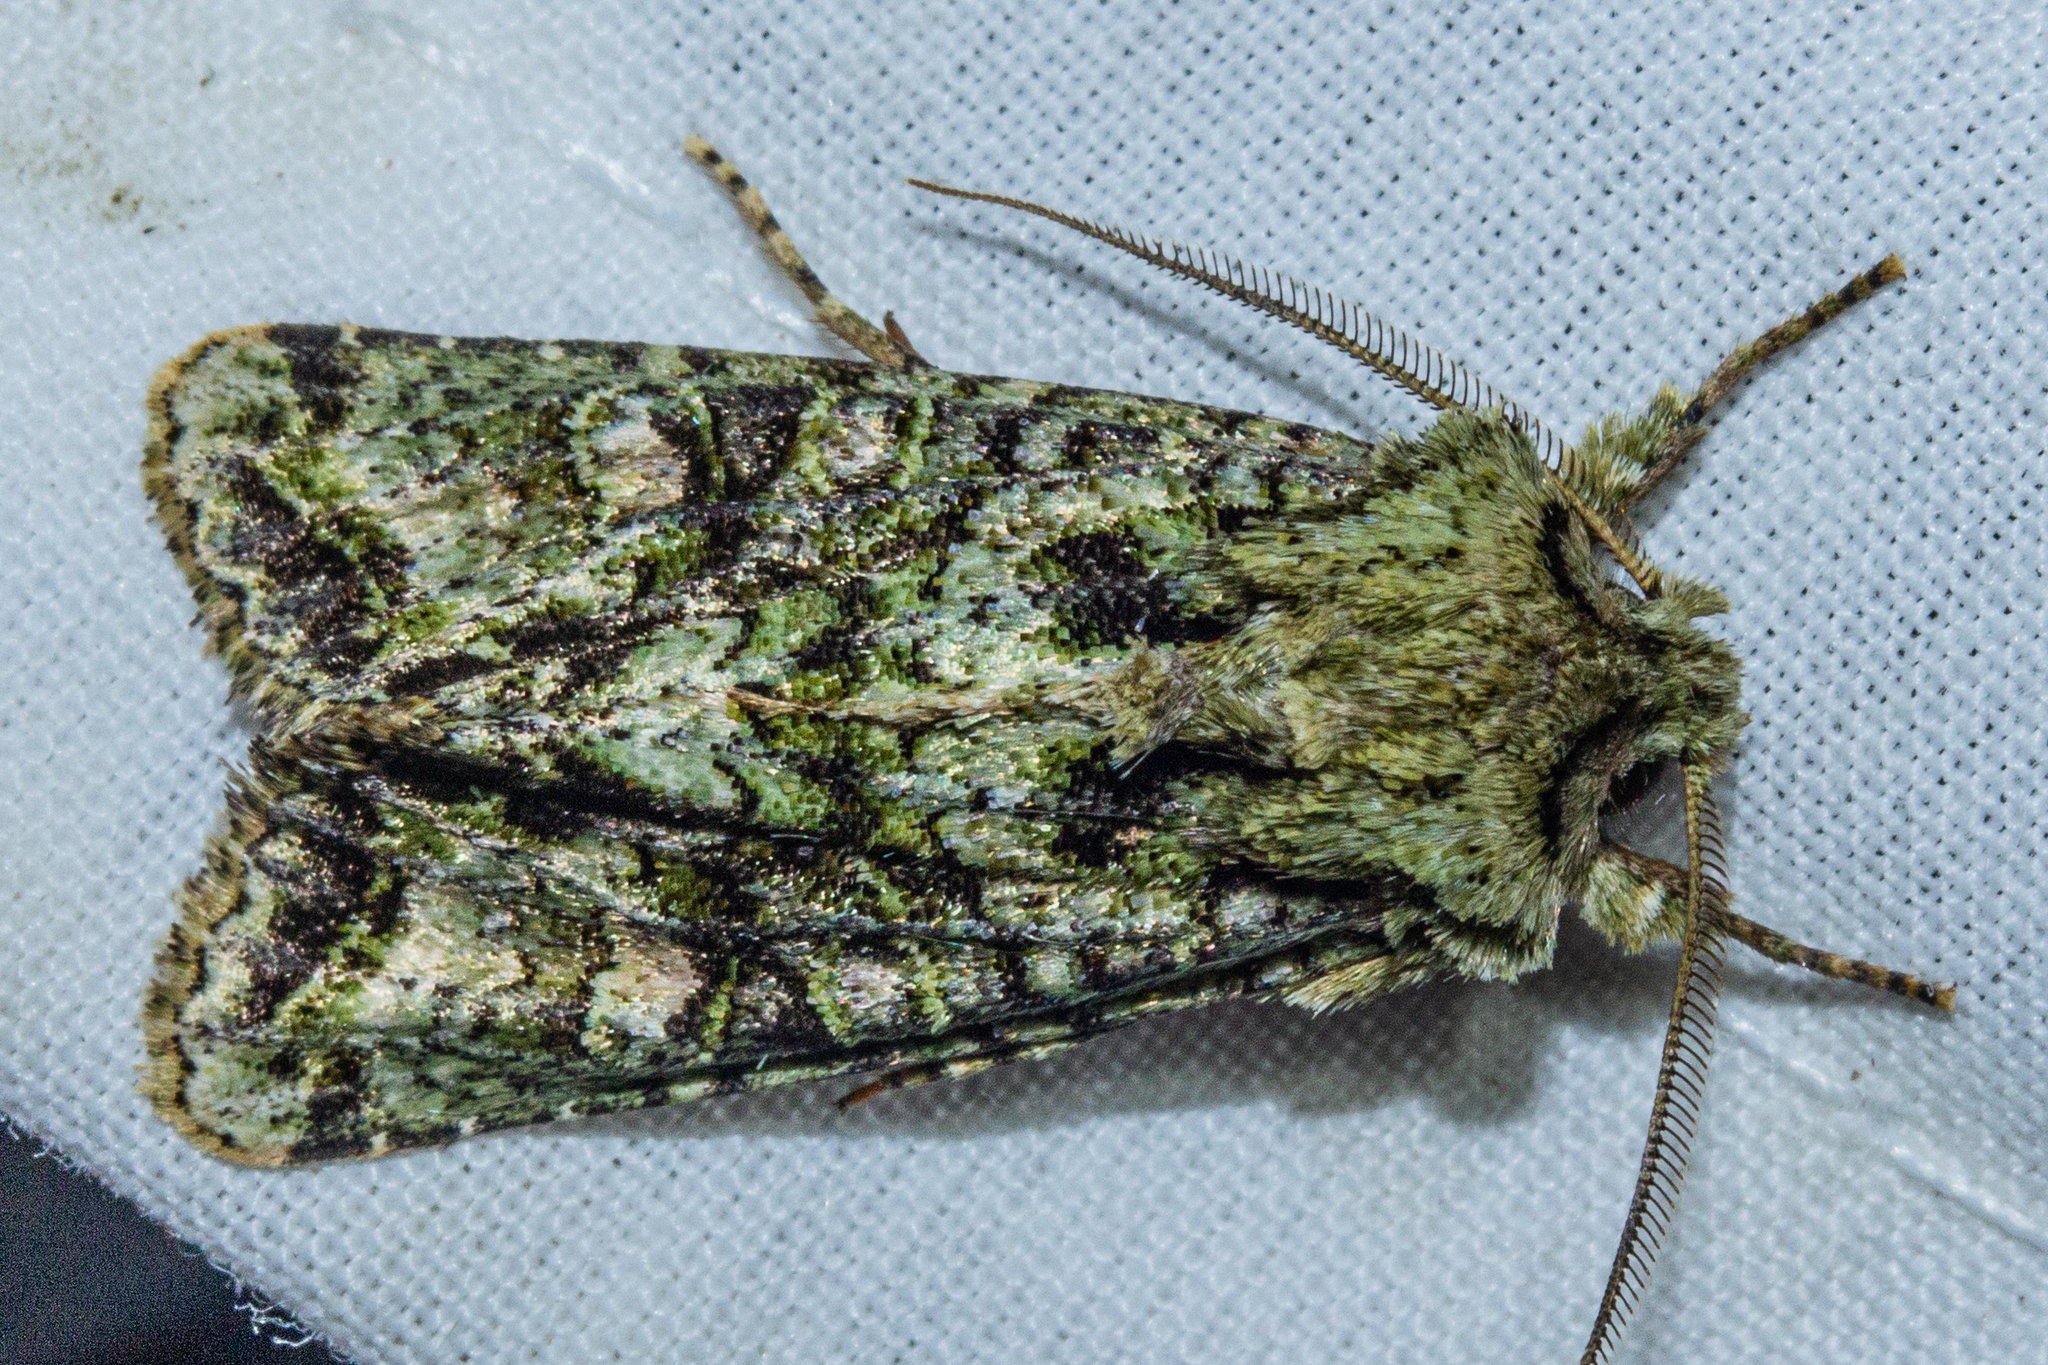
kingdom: Animalia
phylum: Arthropoda
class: Insecta
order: Lepidoptera
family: Noctuidae
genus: Ichneutica
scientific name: Ichneutica
